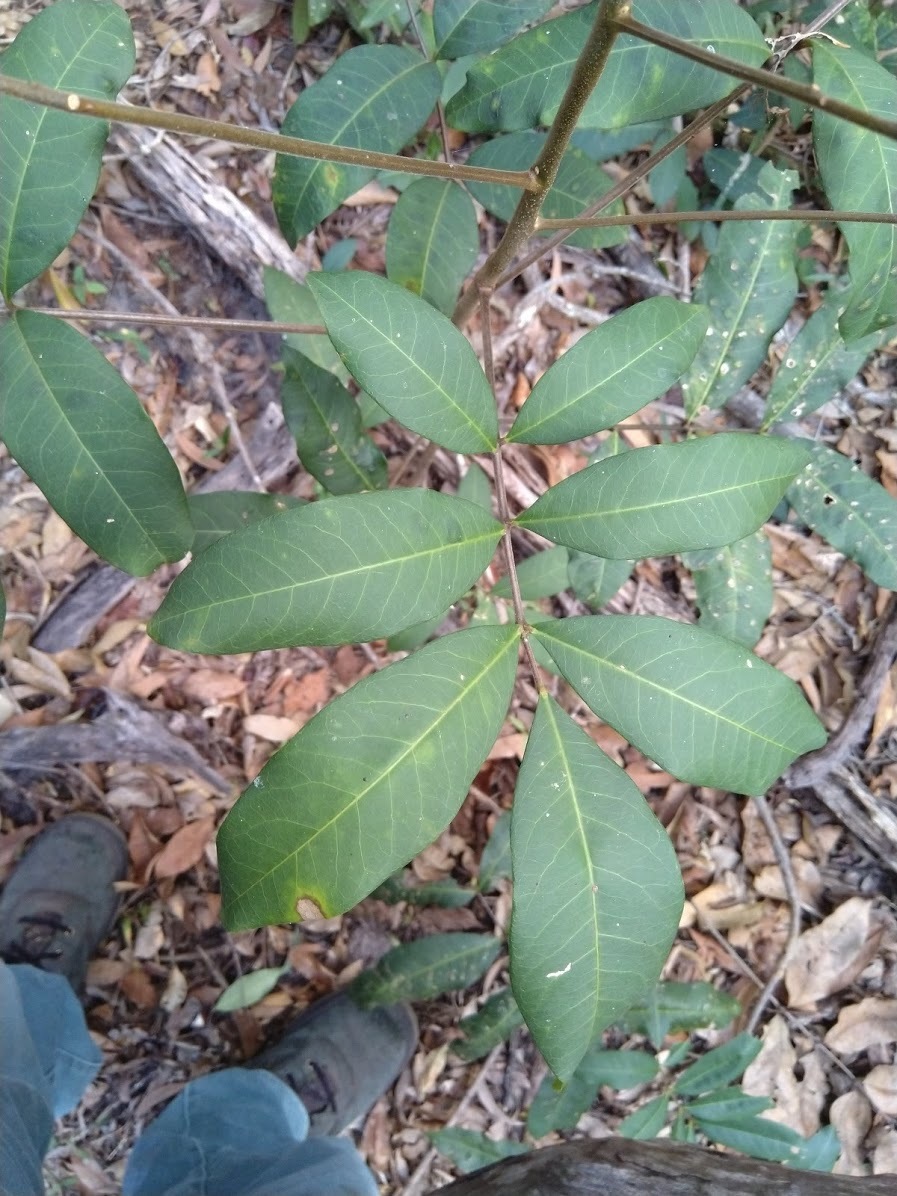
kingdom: Plantae
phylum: Tracheophyta
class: Magnoliopsida
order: Sapindales
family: Rutaceae
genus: Flindersia
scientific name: Flindersia bennettii
